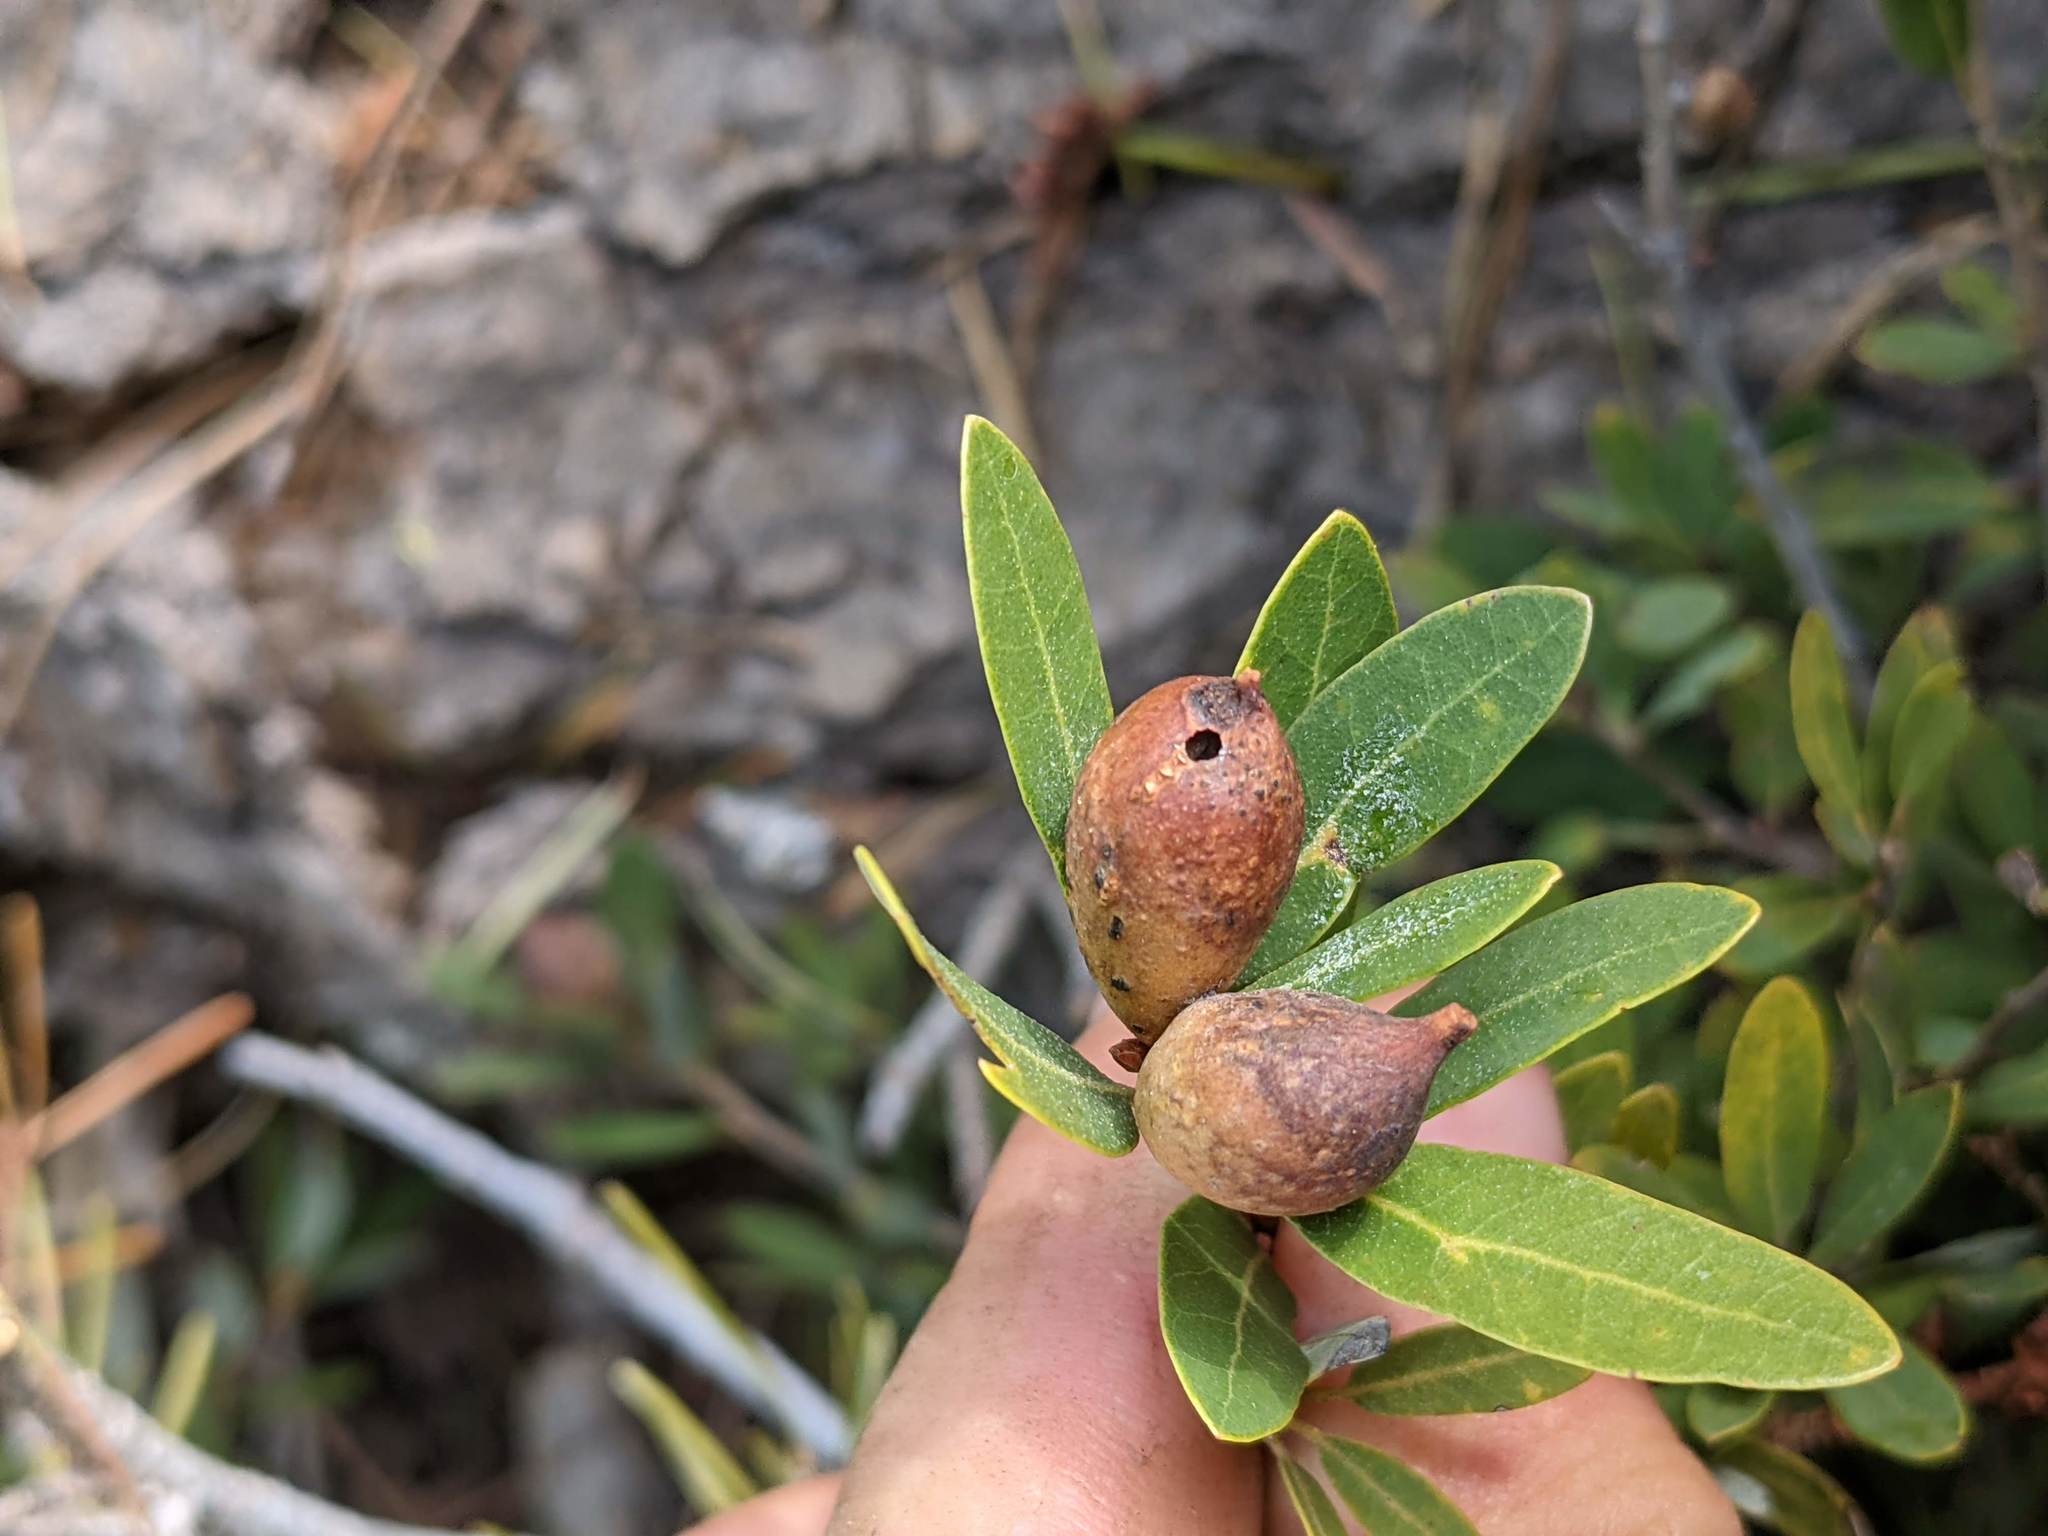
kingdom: Animalia
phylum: Arthropoda
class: Insecta
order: Hymenoptera
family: Cynipidae
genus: Heteroecus
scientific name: Heteroecus pacificus
